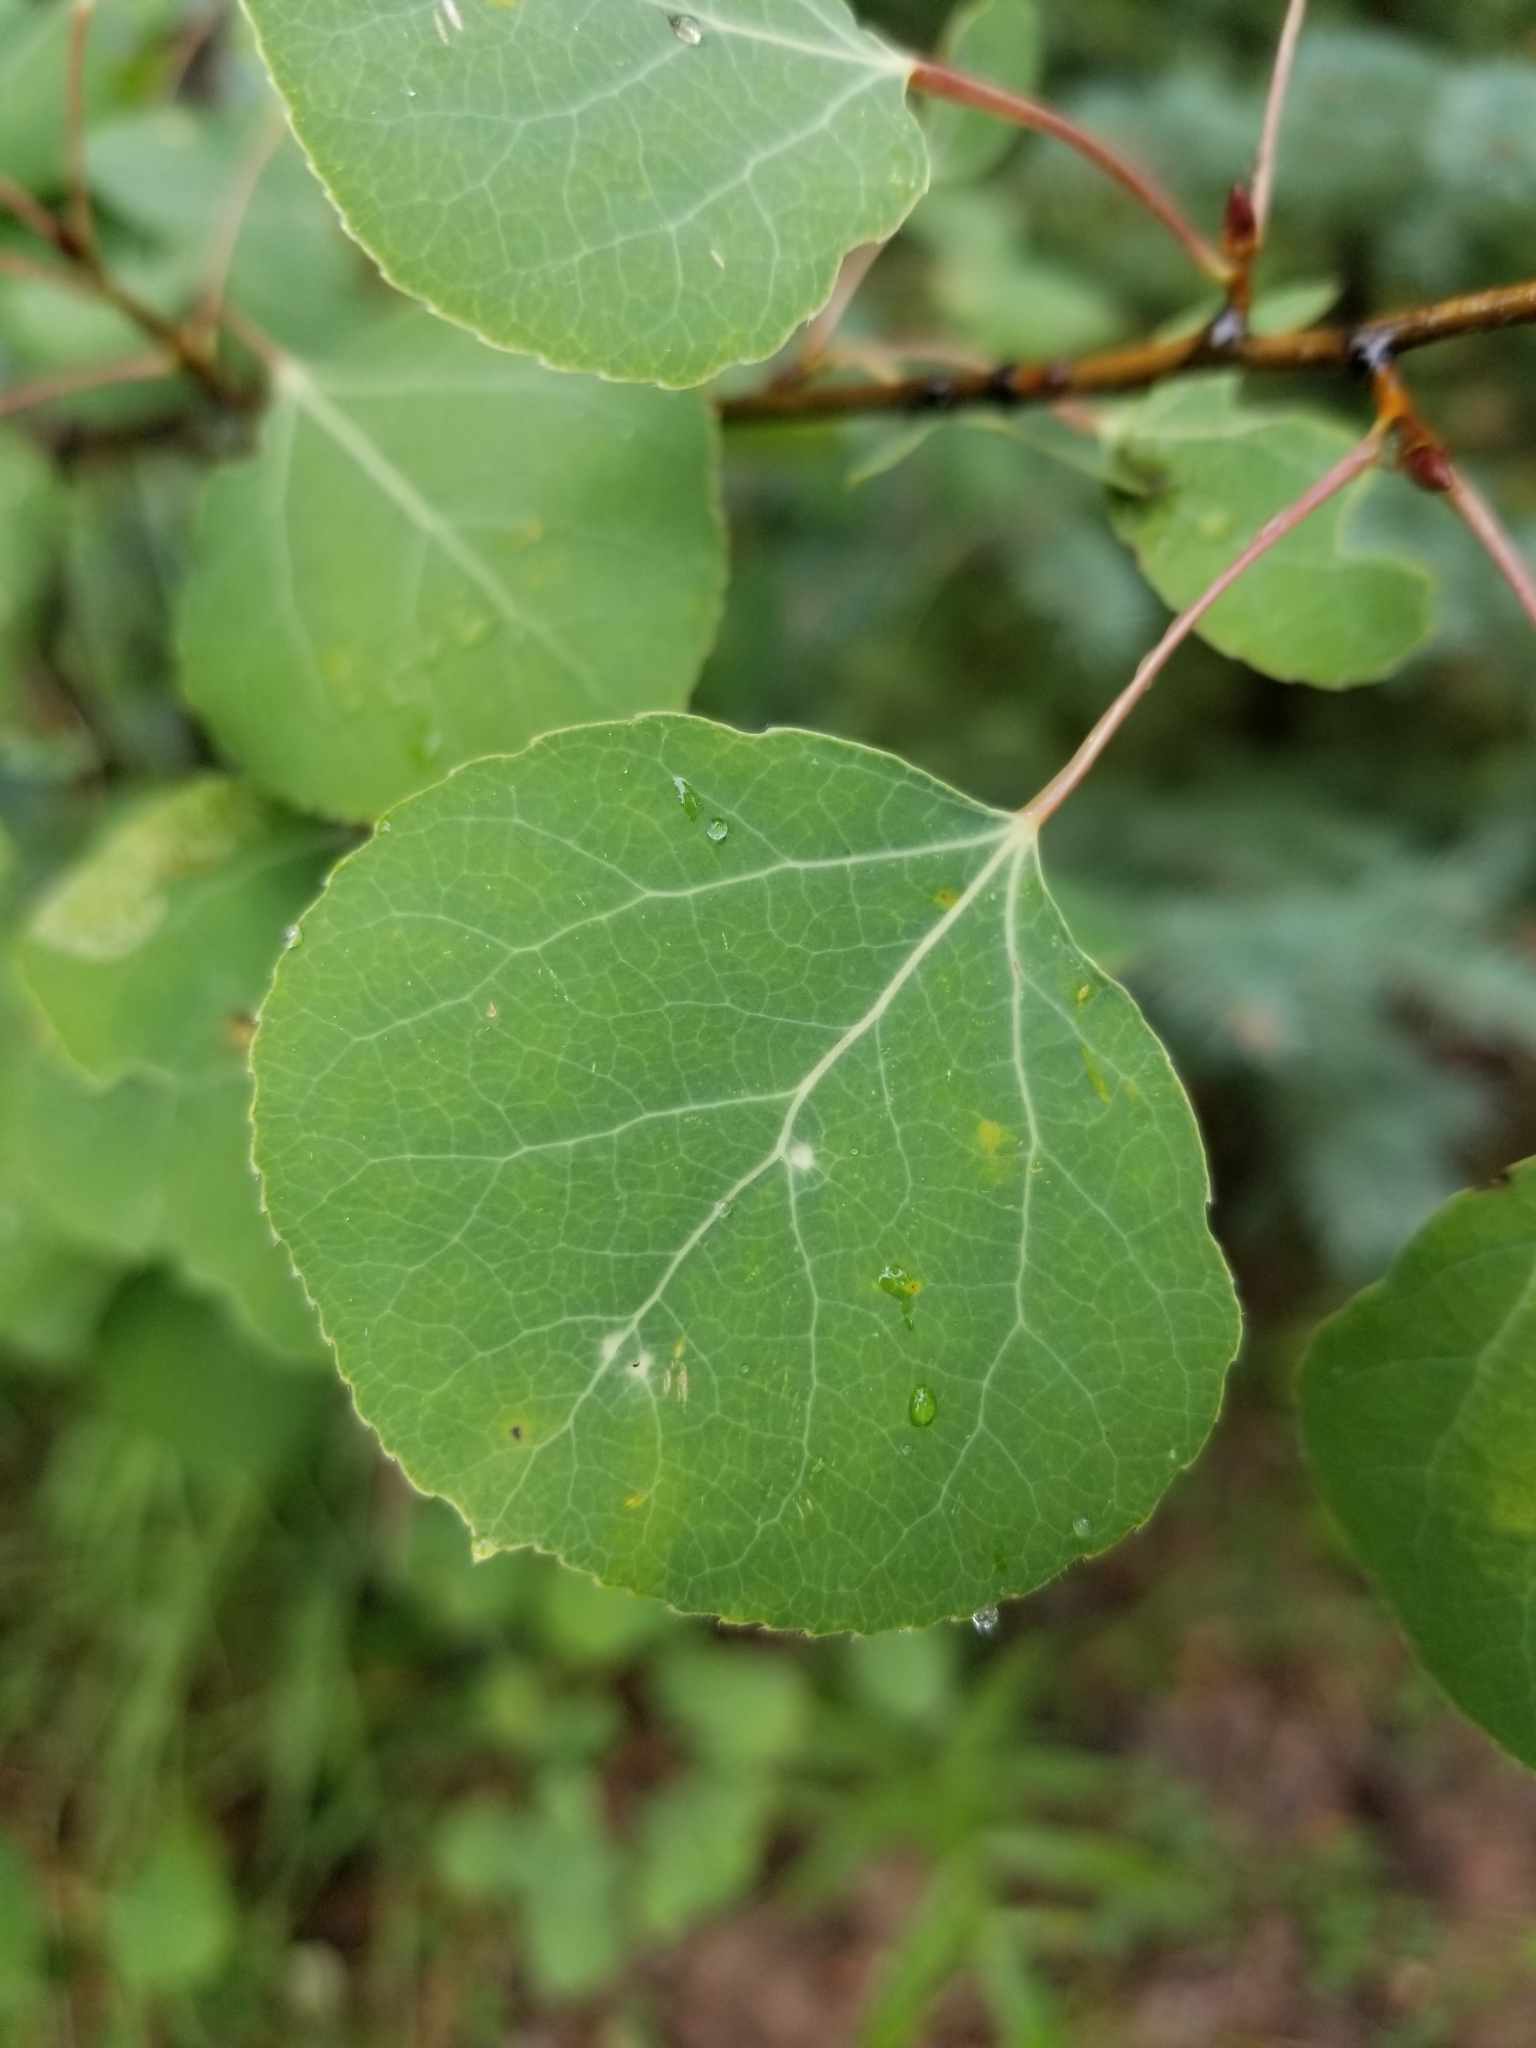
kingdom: Plantae
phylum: Tracheophyta
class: Magnoliopsida
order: Malpighiales
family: Salicaceae
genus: Populus
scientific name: Populus tremuloides
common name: Quaking aspen
